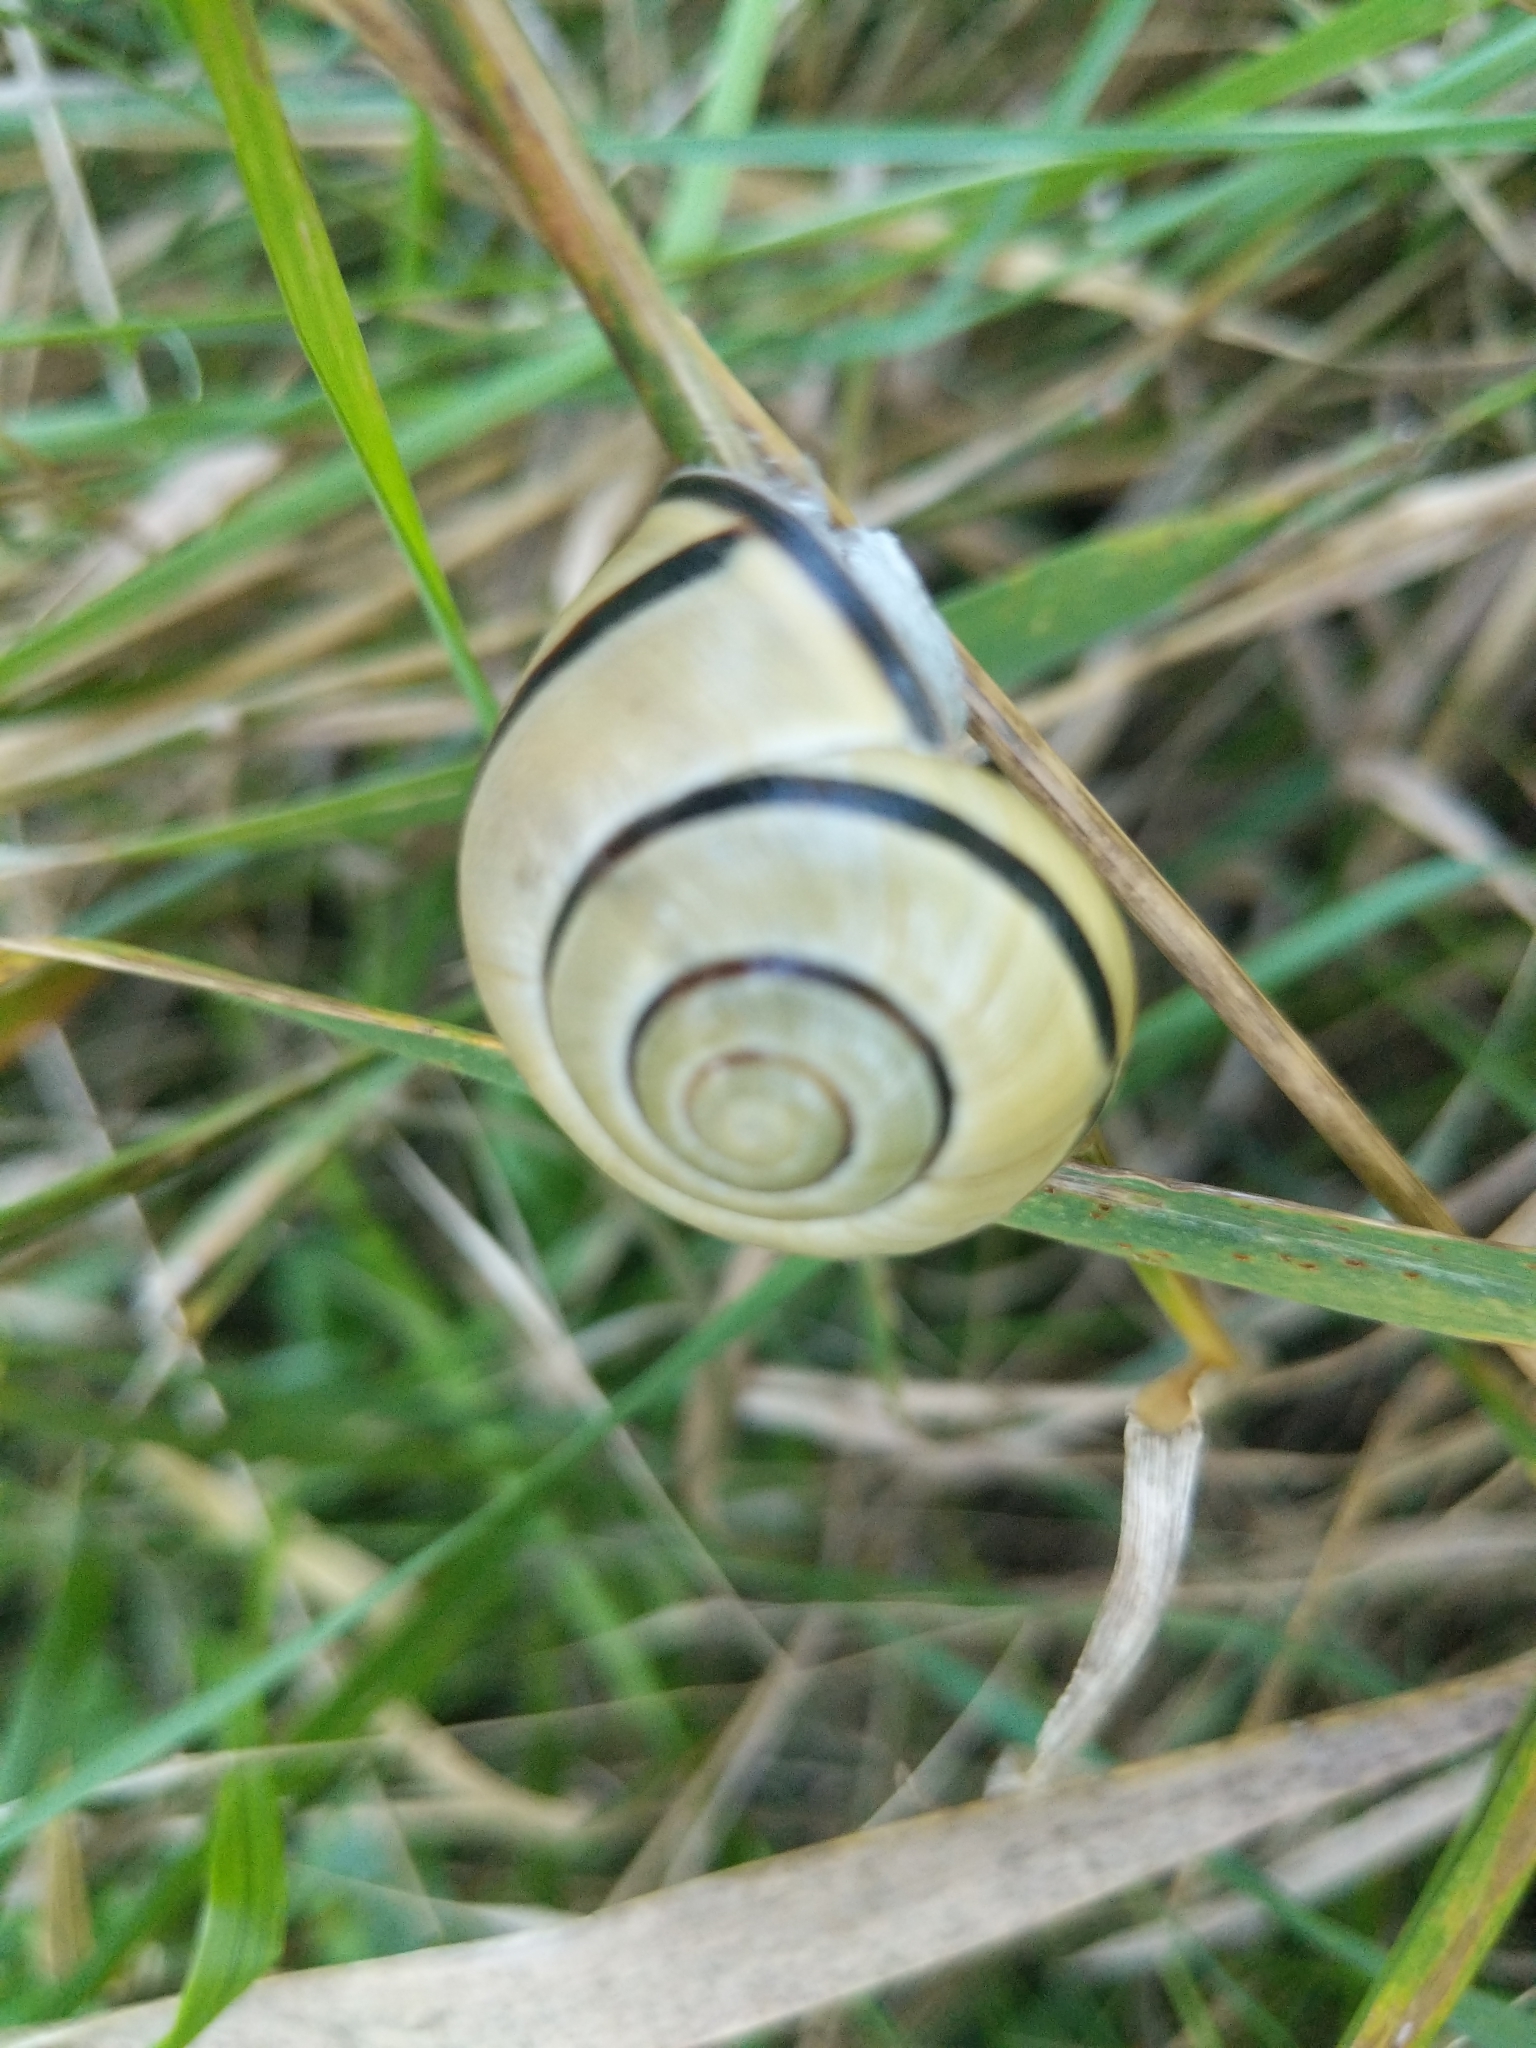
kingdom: Animalia
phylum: Mollusca
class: Gastropoda
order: Stylommatophora
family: Helicidae
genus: Cepaea
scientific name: Cepaea nemoralis
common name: Grovesnail
